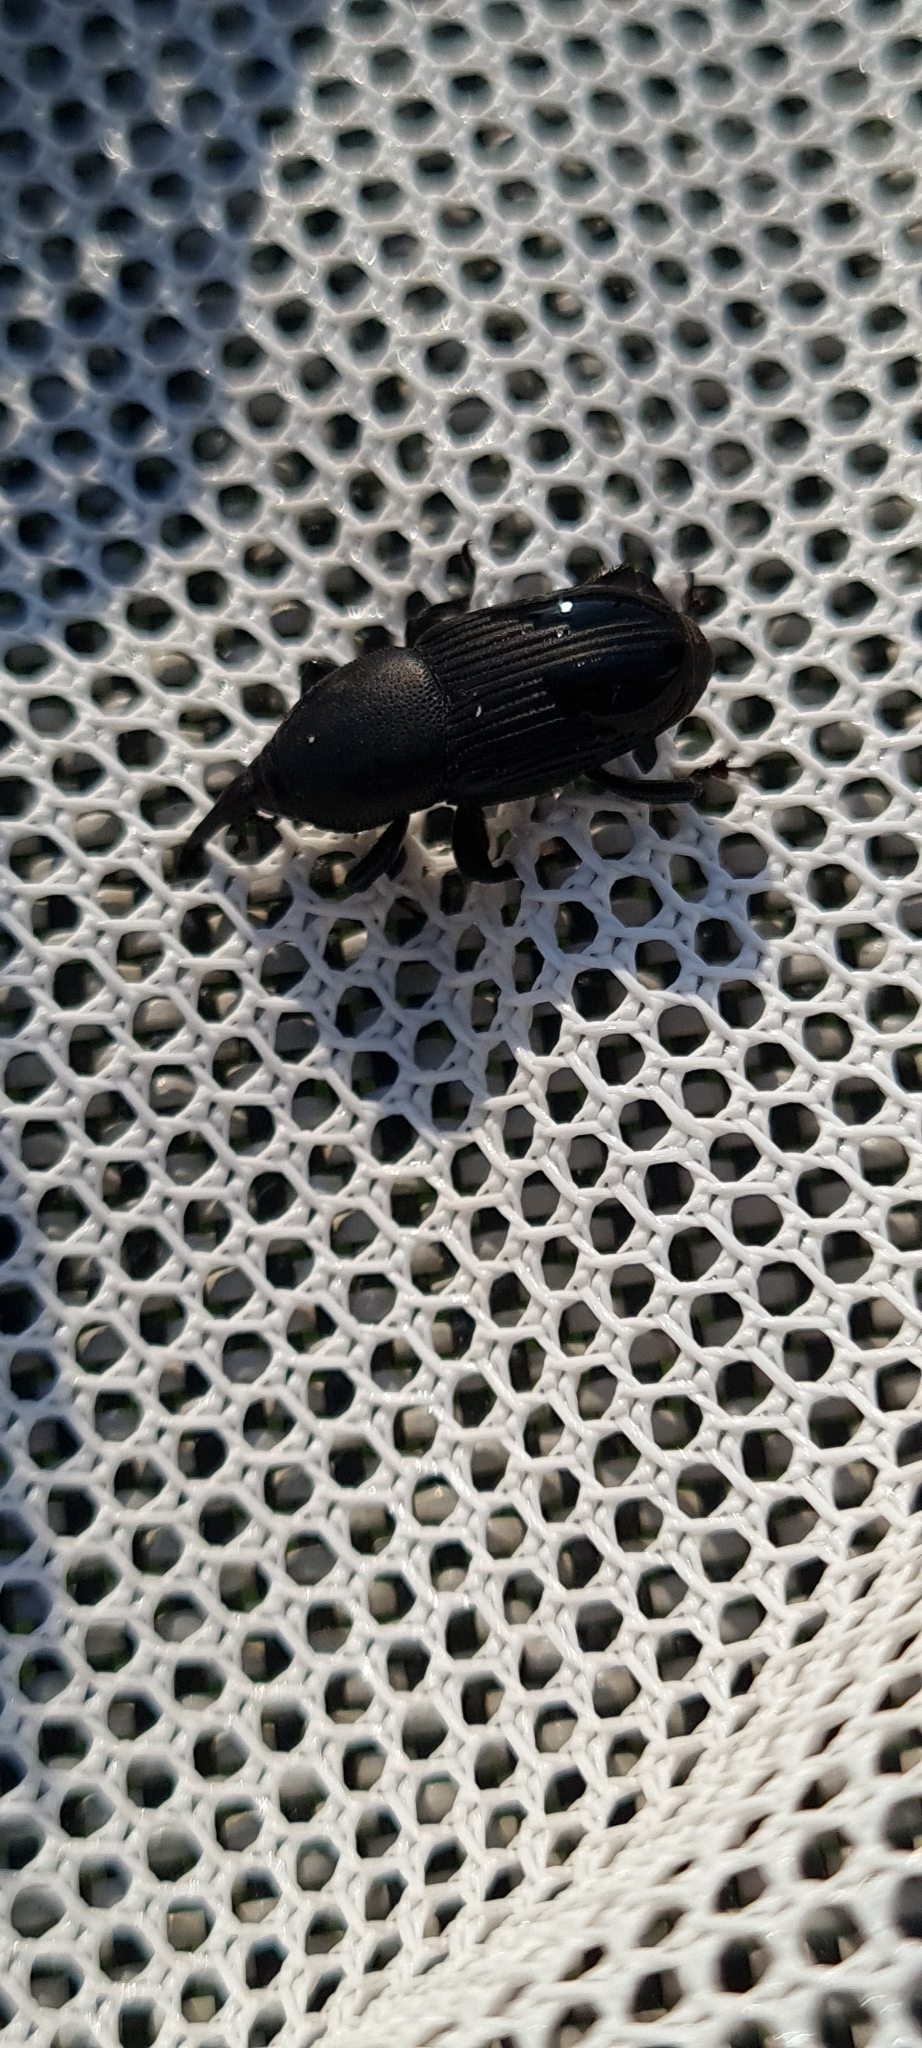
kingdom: Animalia
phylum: Arthropoda
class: Insecta
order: Coleoptera
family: Dryophthoridae
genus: Scyphophorus
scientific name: Scyphophorus acupunctatus
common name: Weevil
